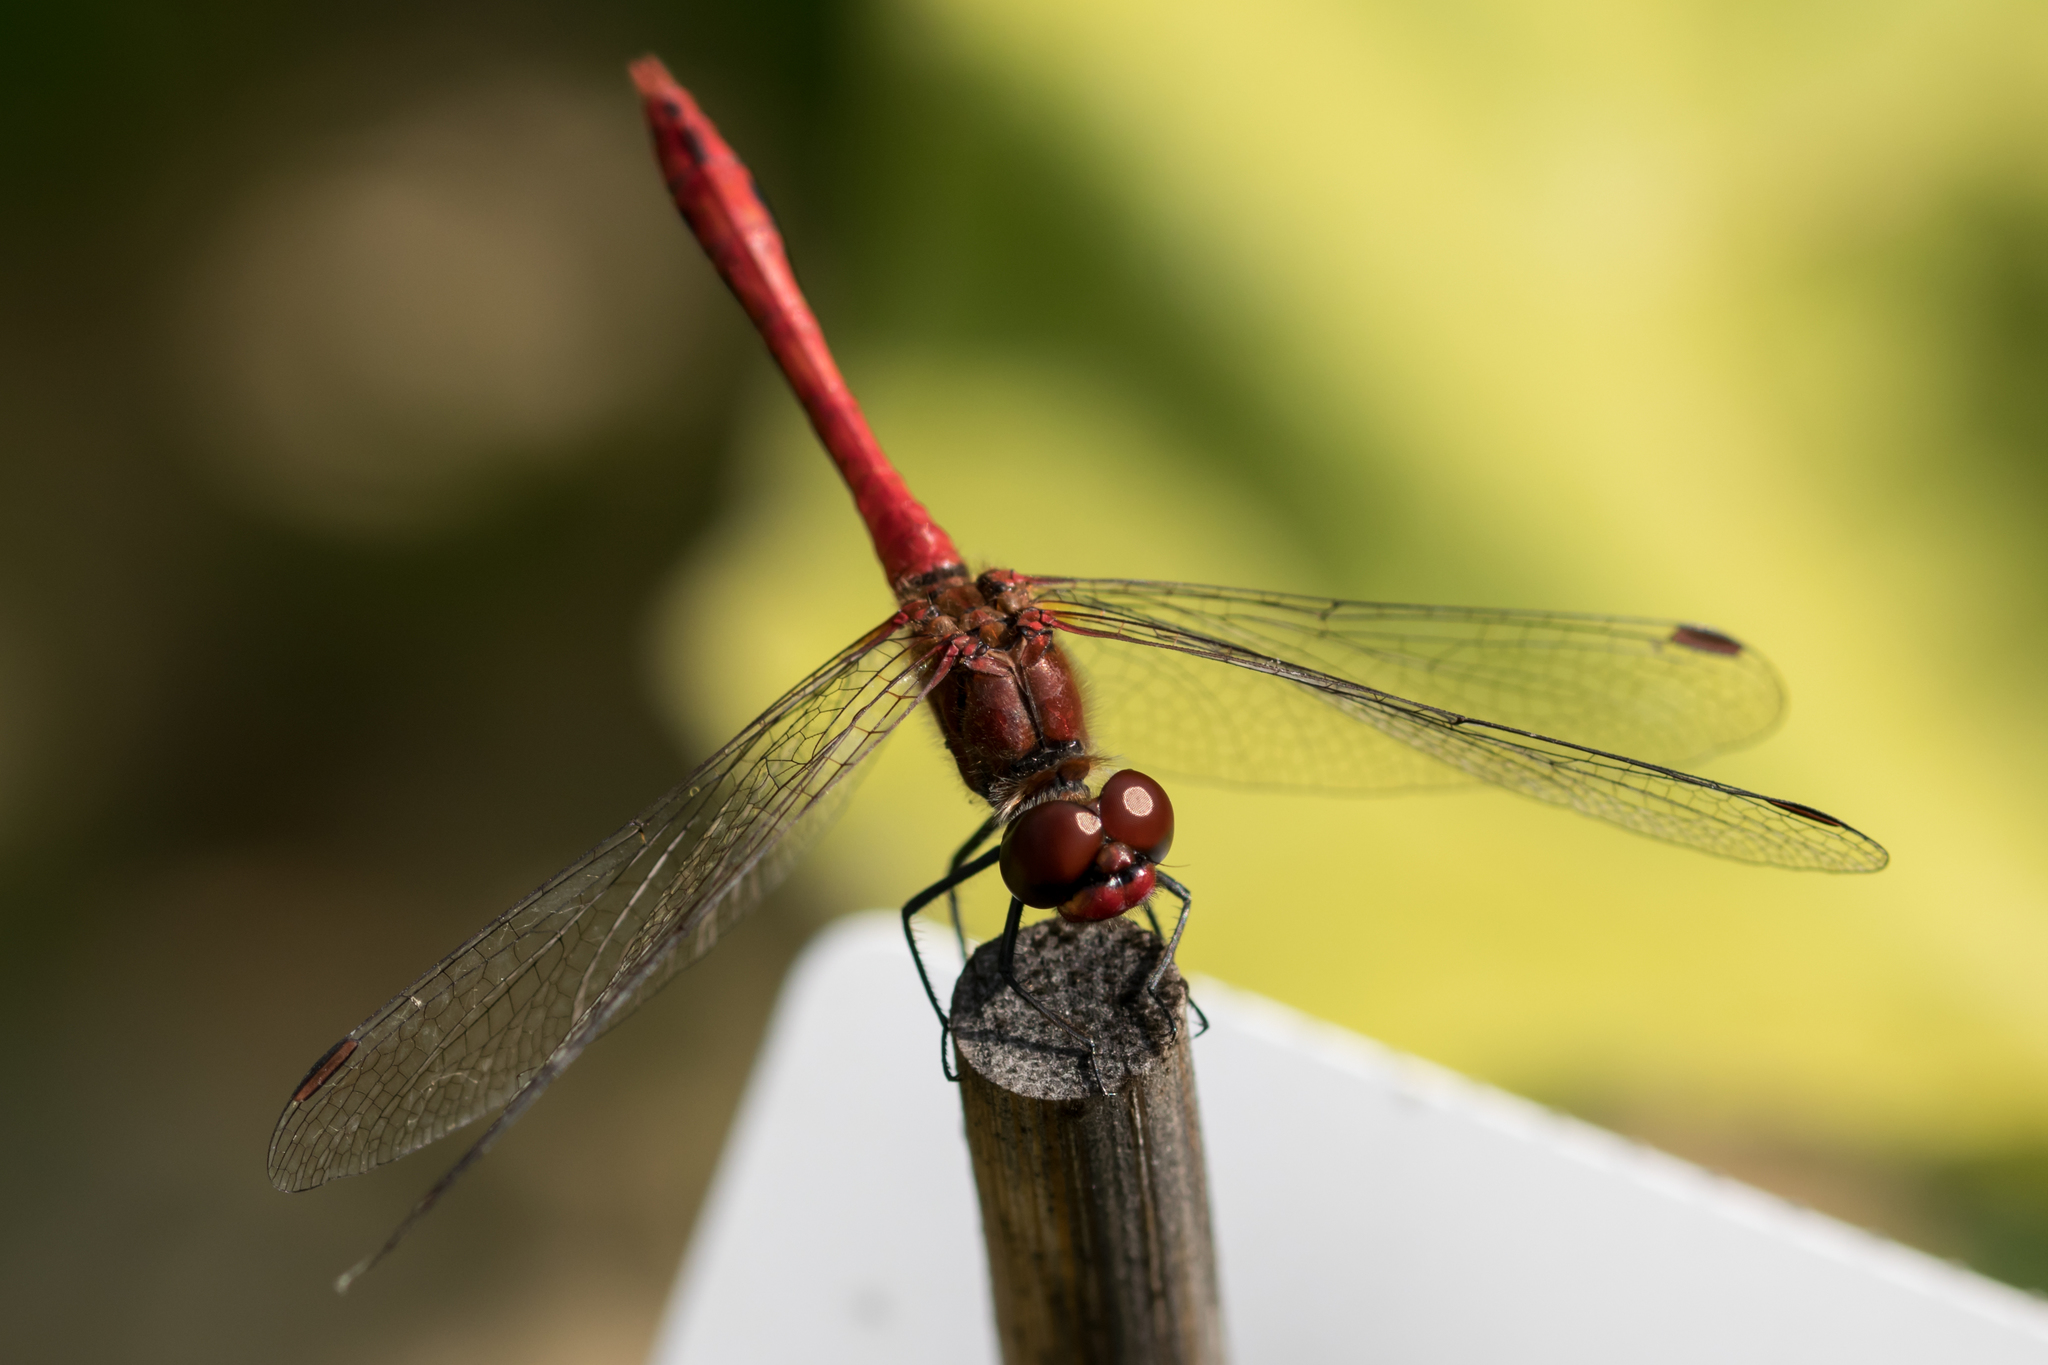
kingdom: Animalia
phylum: Arthropoda
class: Insecta
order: Odonata
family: Libellulidae
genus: Sympetrum
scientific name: Sympetrum sanguineum
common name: Ruddy darter
